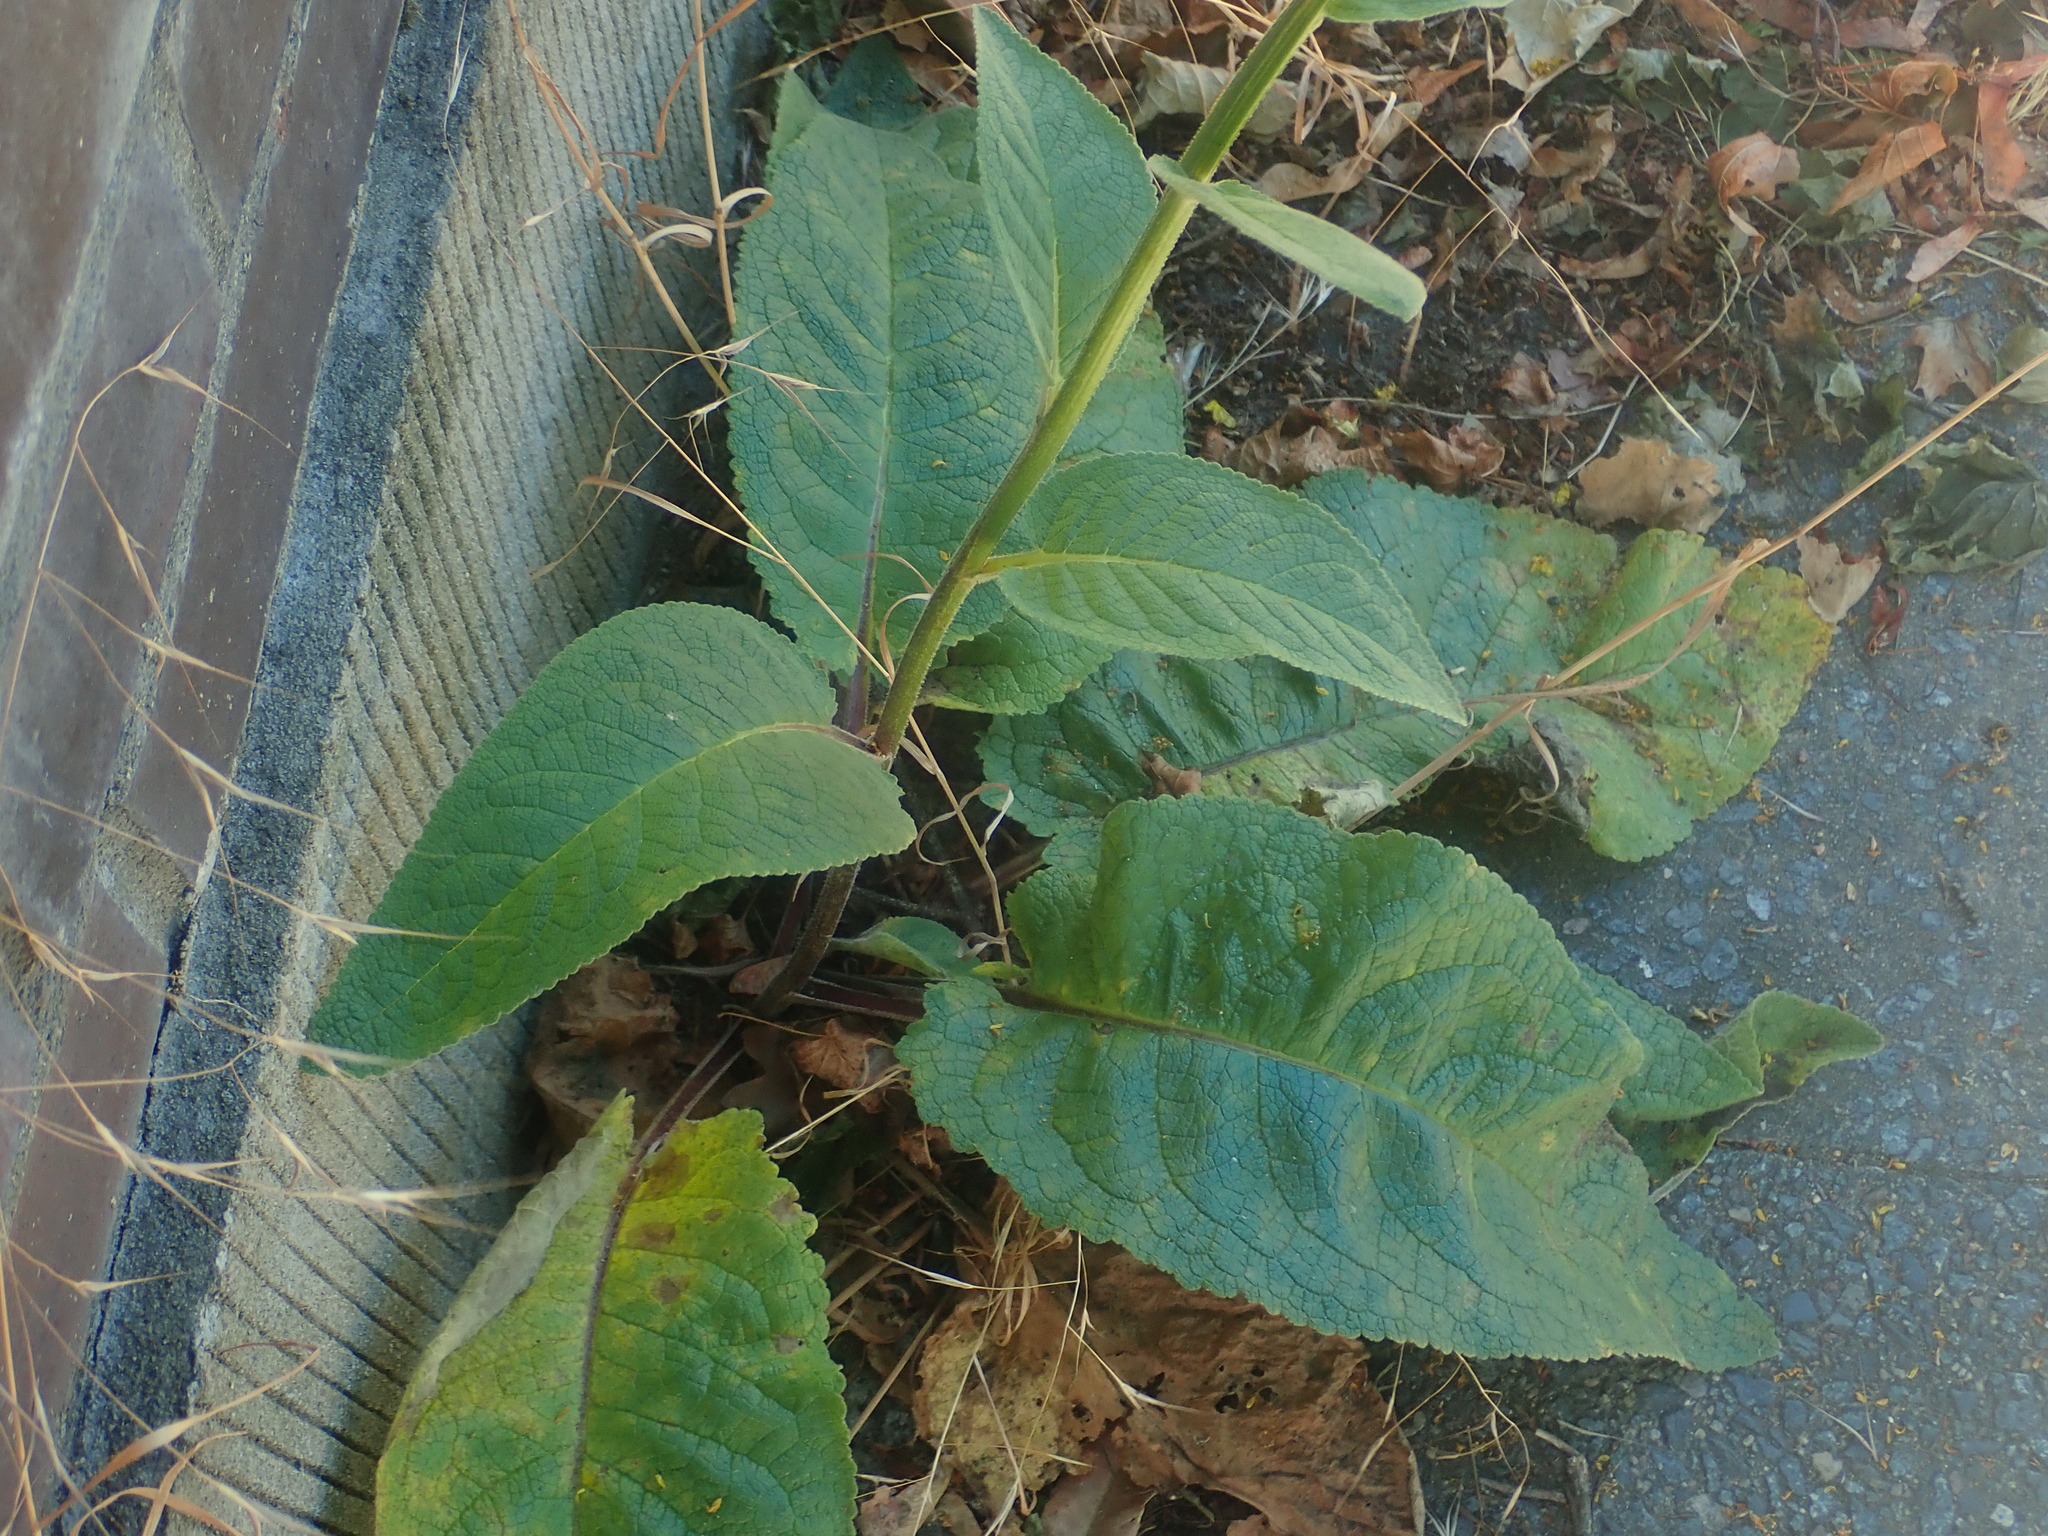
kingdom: Plantae
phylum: Tracheophyta
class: Magnoliopsida
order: Lamiales
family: Scrophulariaceae
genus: Verbascum
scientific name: Verbascum nigrum
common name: Dark mullein
